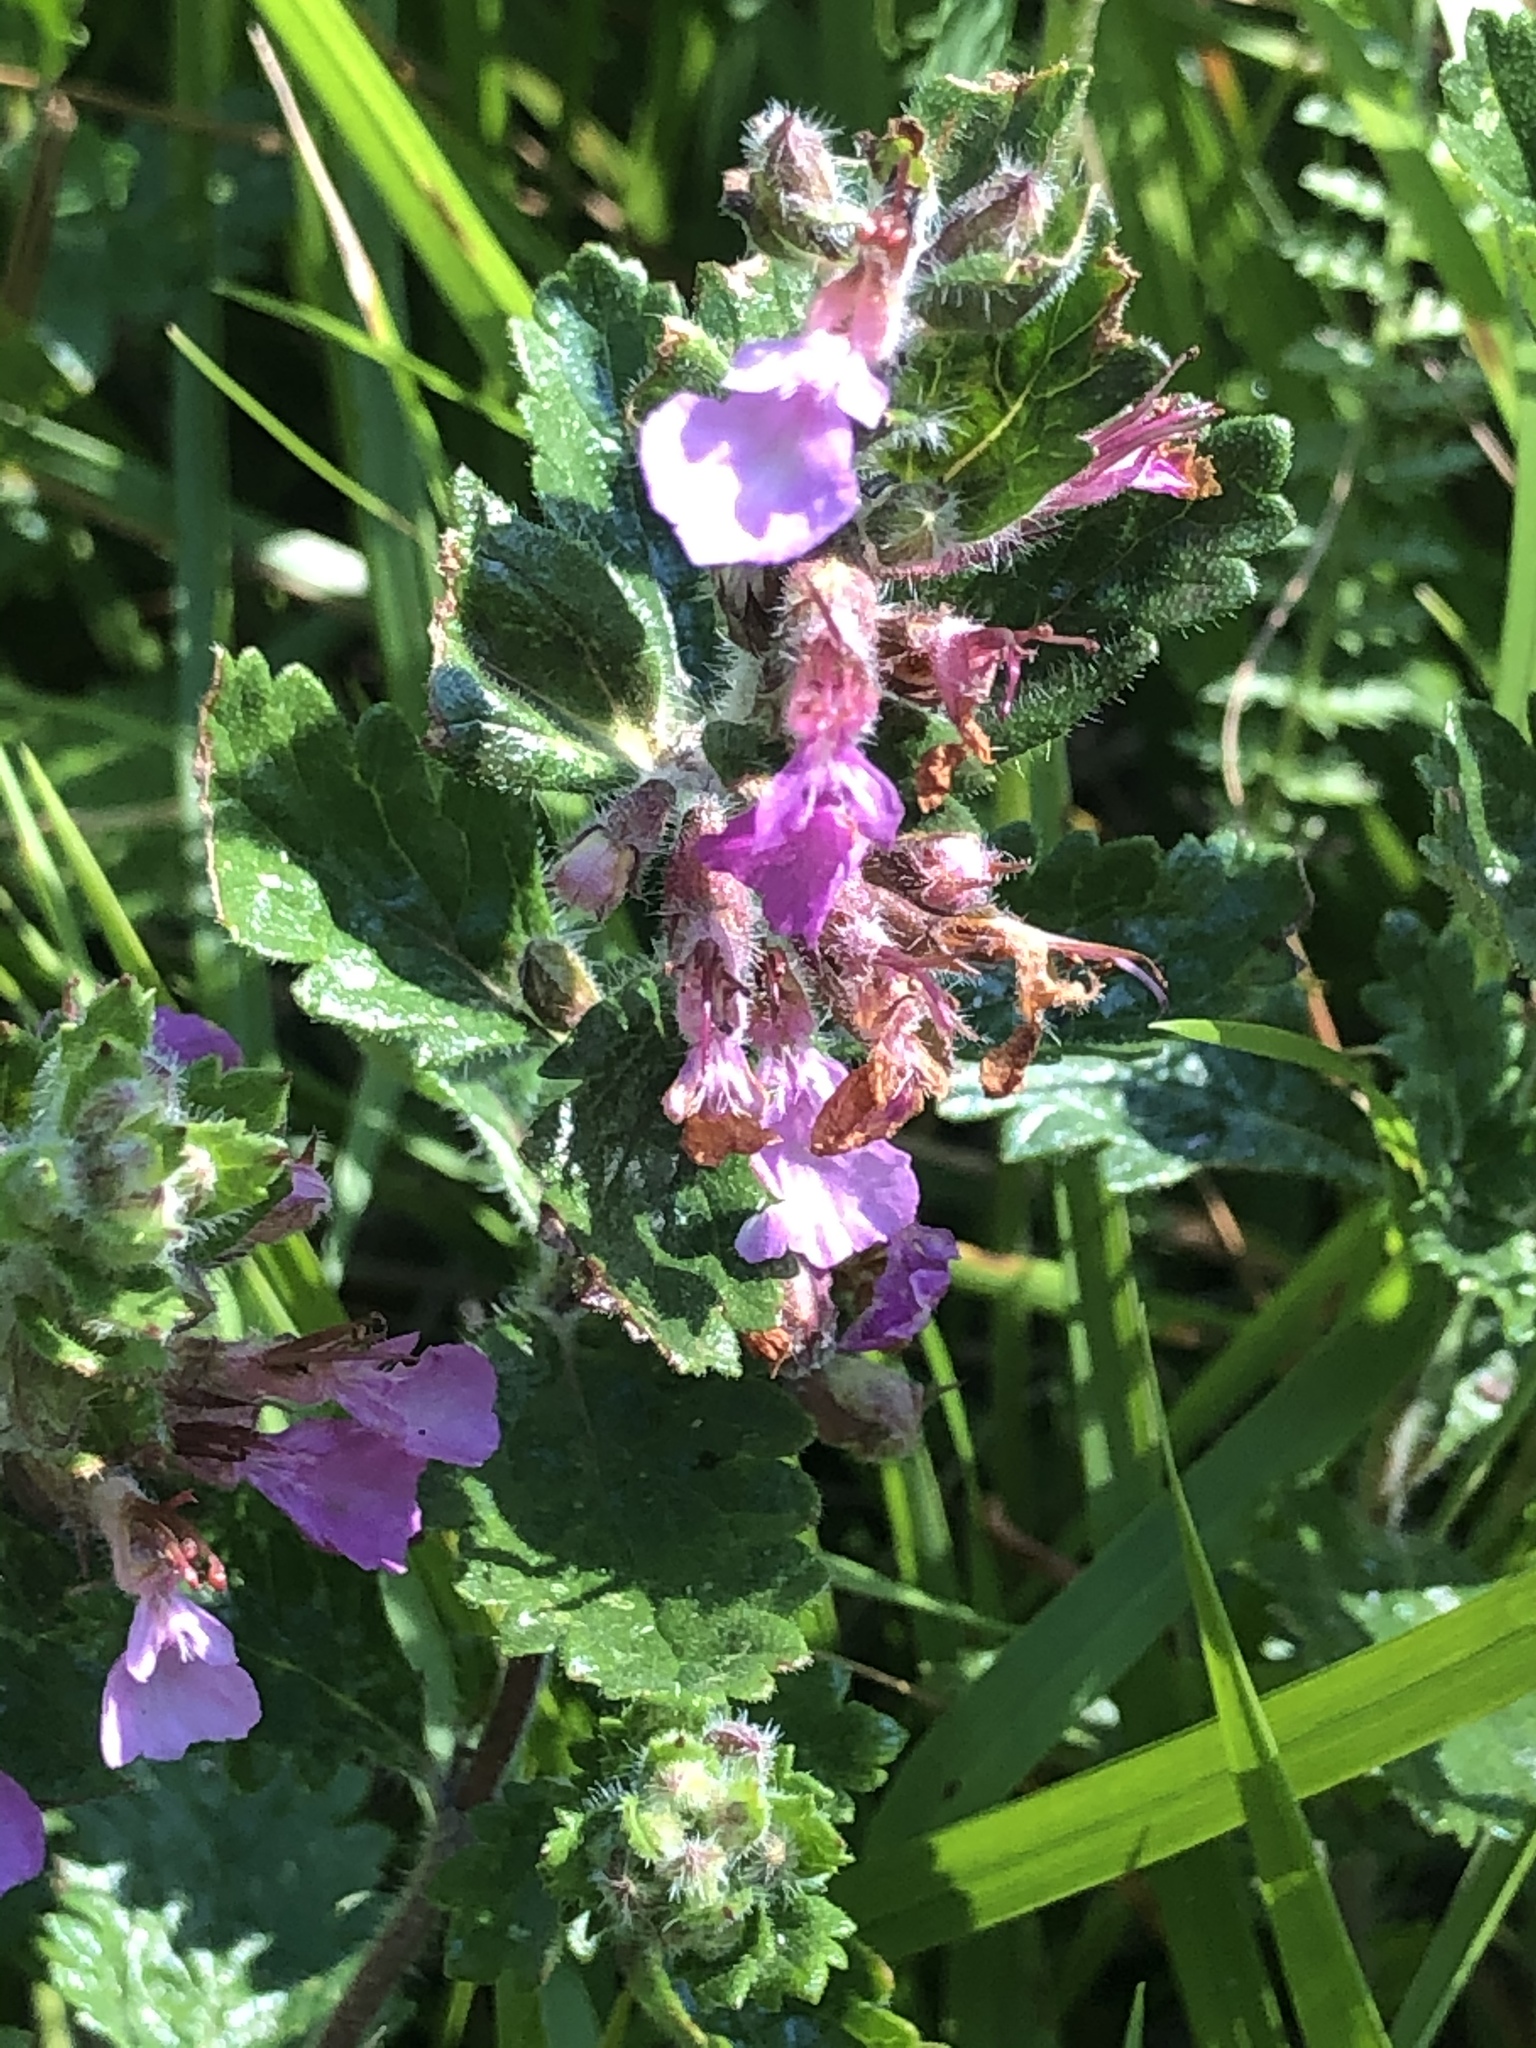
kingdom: Plantae
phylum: Tracheophyta
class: Magnoliopsida
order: Lamiales
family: Lamiaceae
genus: Teucrium
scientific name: Teucrium chamaedrys
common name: Wall germander
